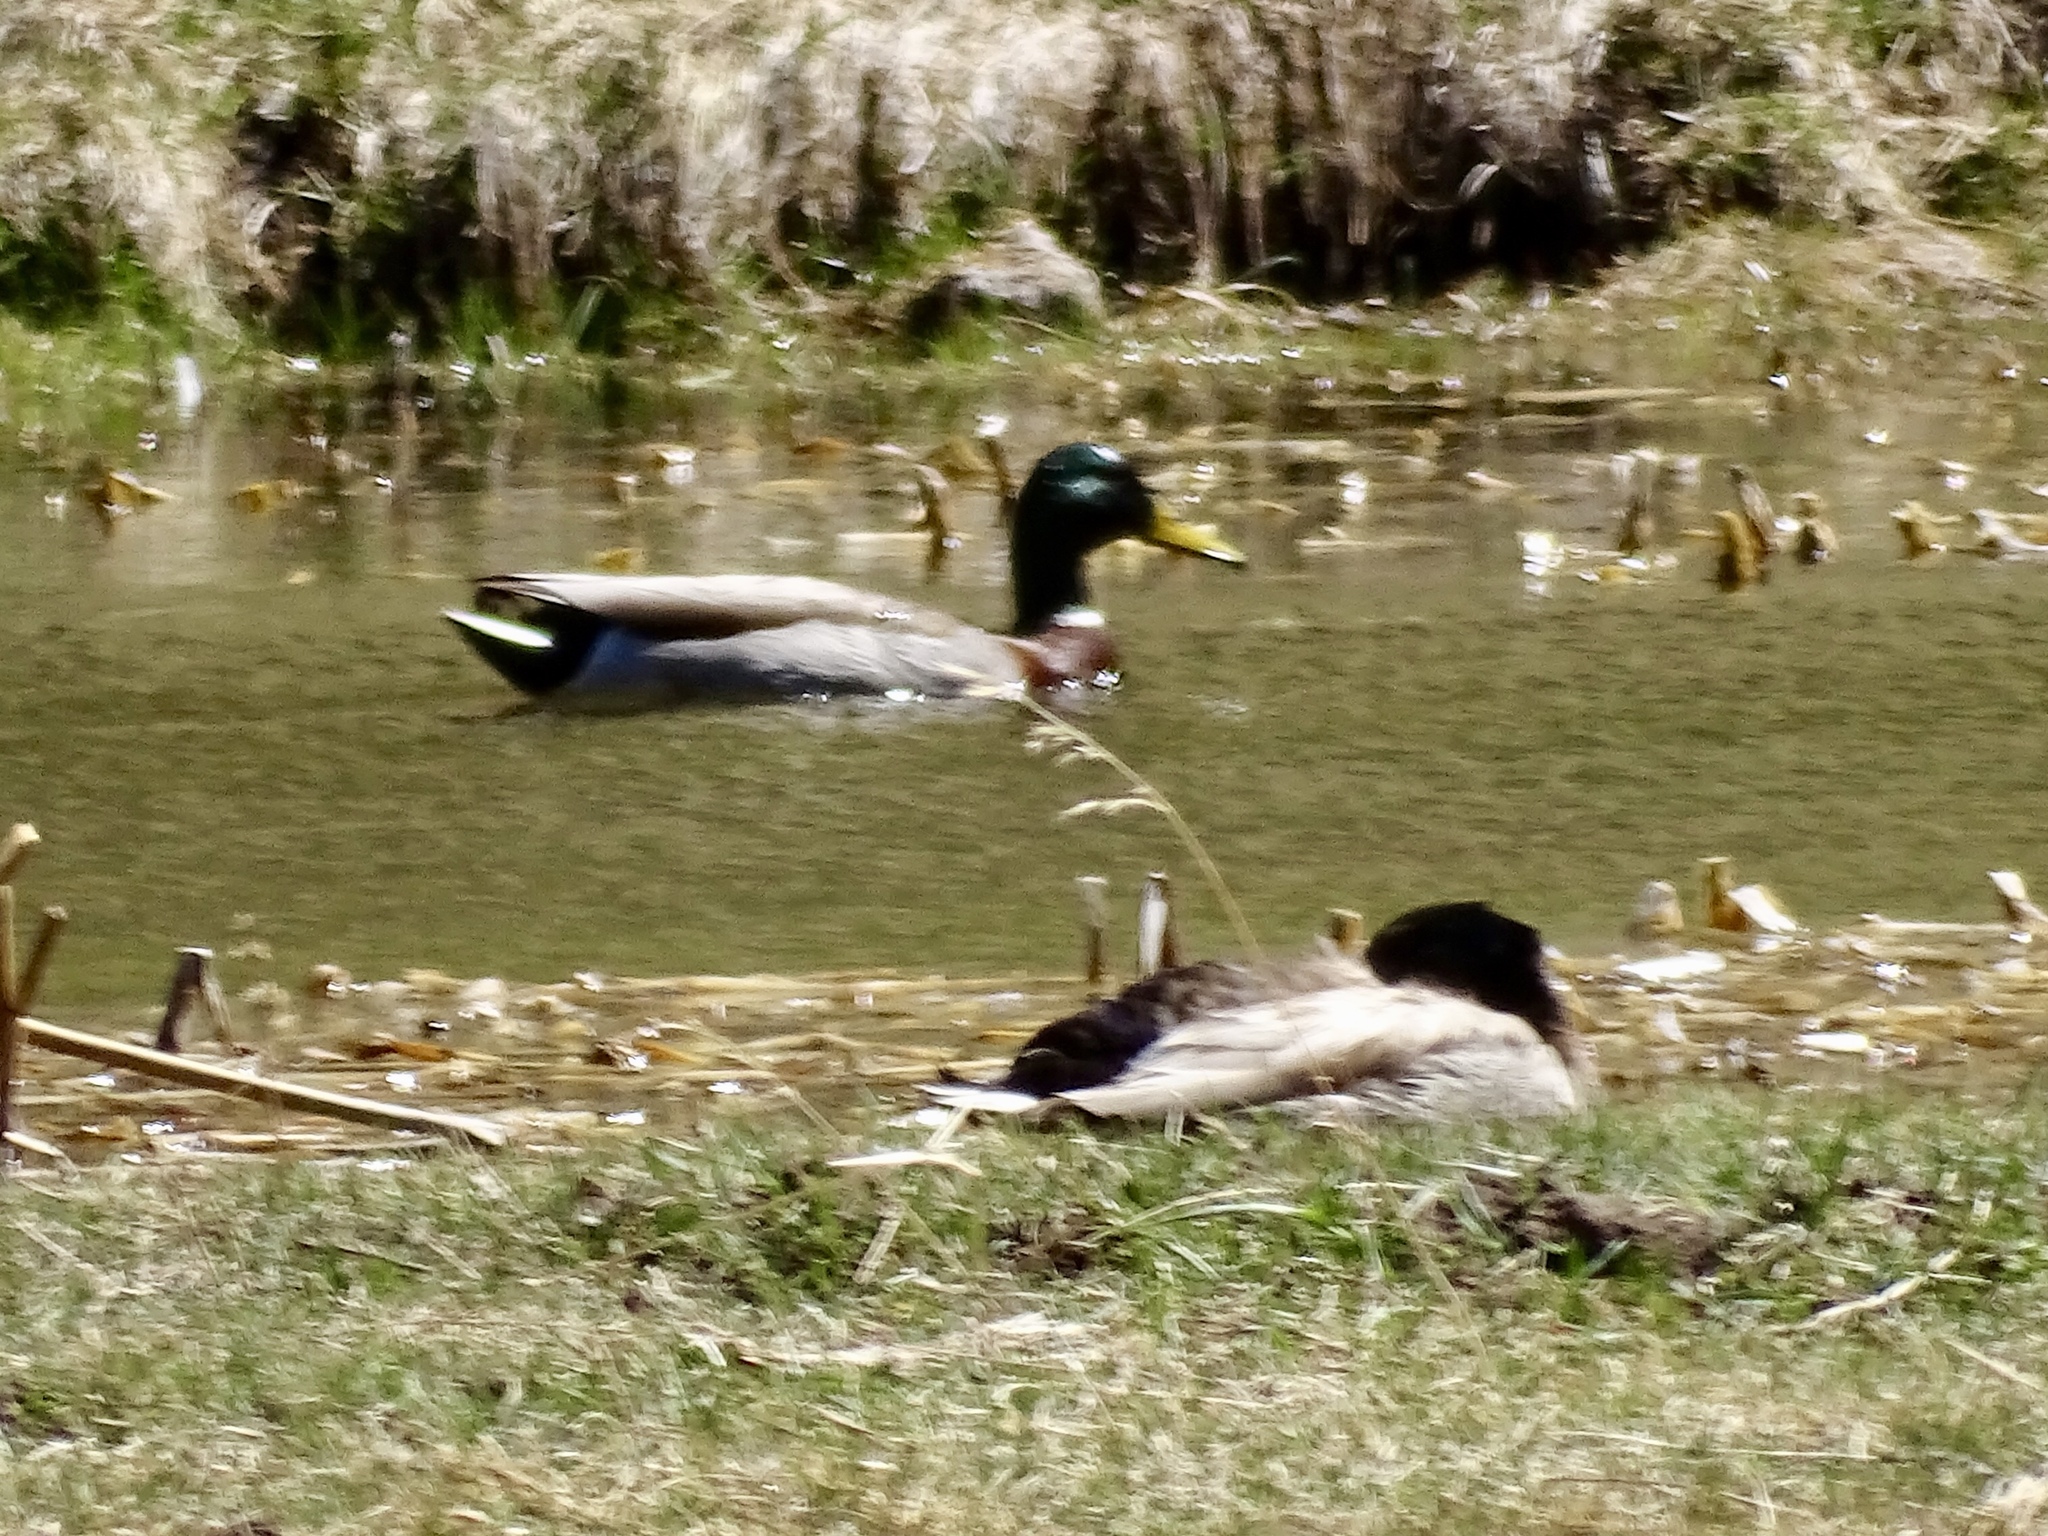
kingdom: Animalia
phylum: Chordata
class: Aves
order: Anseriformes
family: Anatidae
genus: Anas
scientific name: Anas platyrhynchos
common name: Mallard
